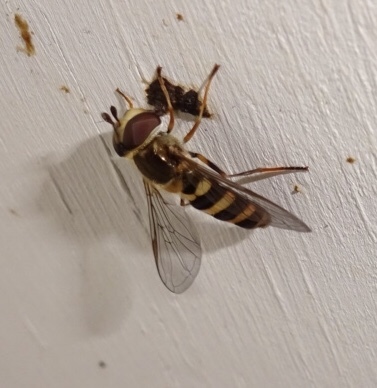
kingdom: Animalia
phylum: Arthropoda
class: Insecta
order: Diptera
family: Syrphidae
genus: Eupeodes
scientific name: Eupeodes
